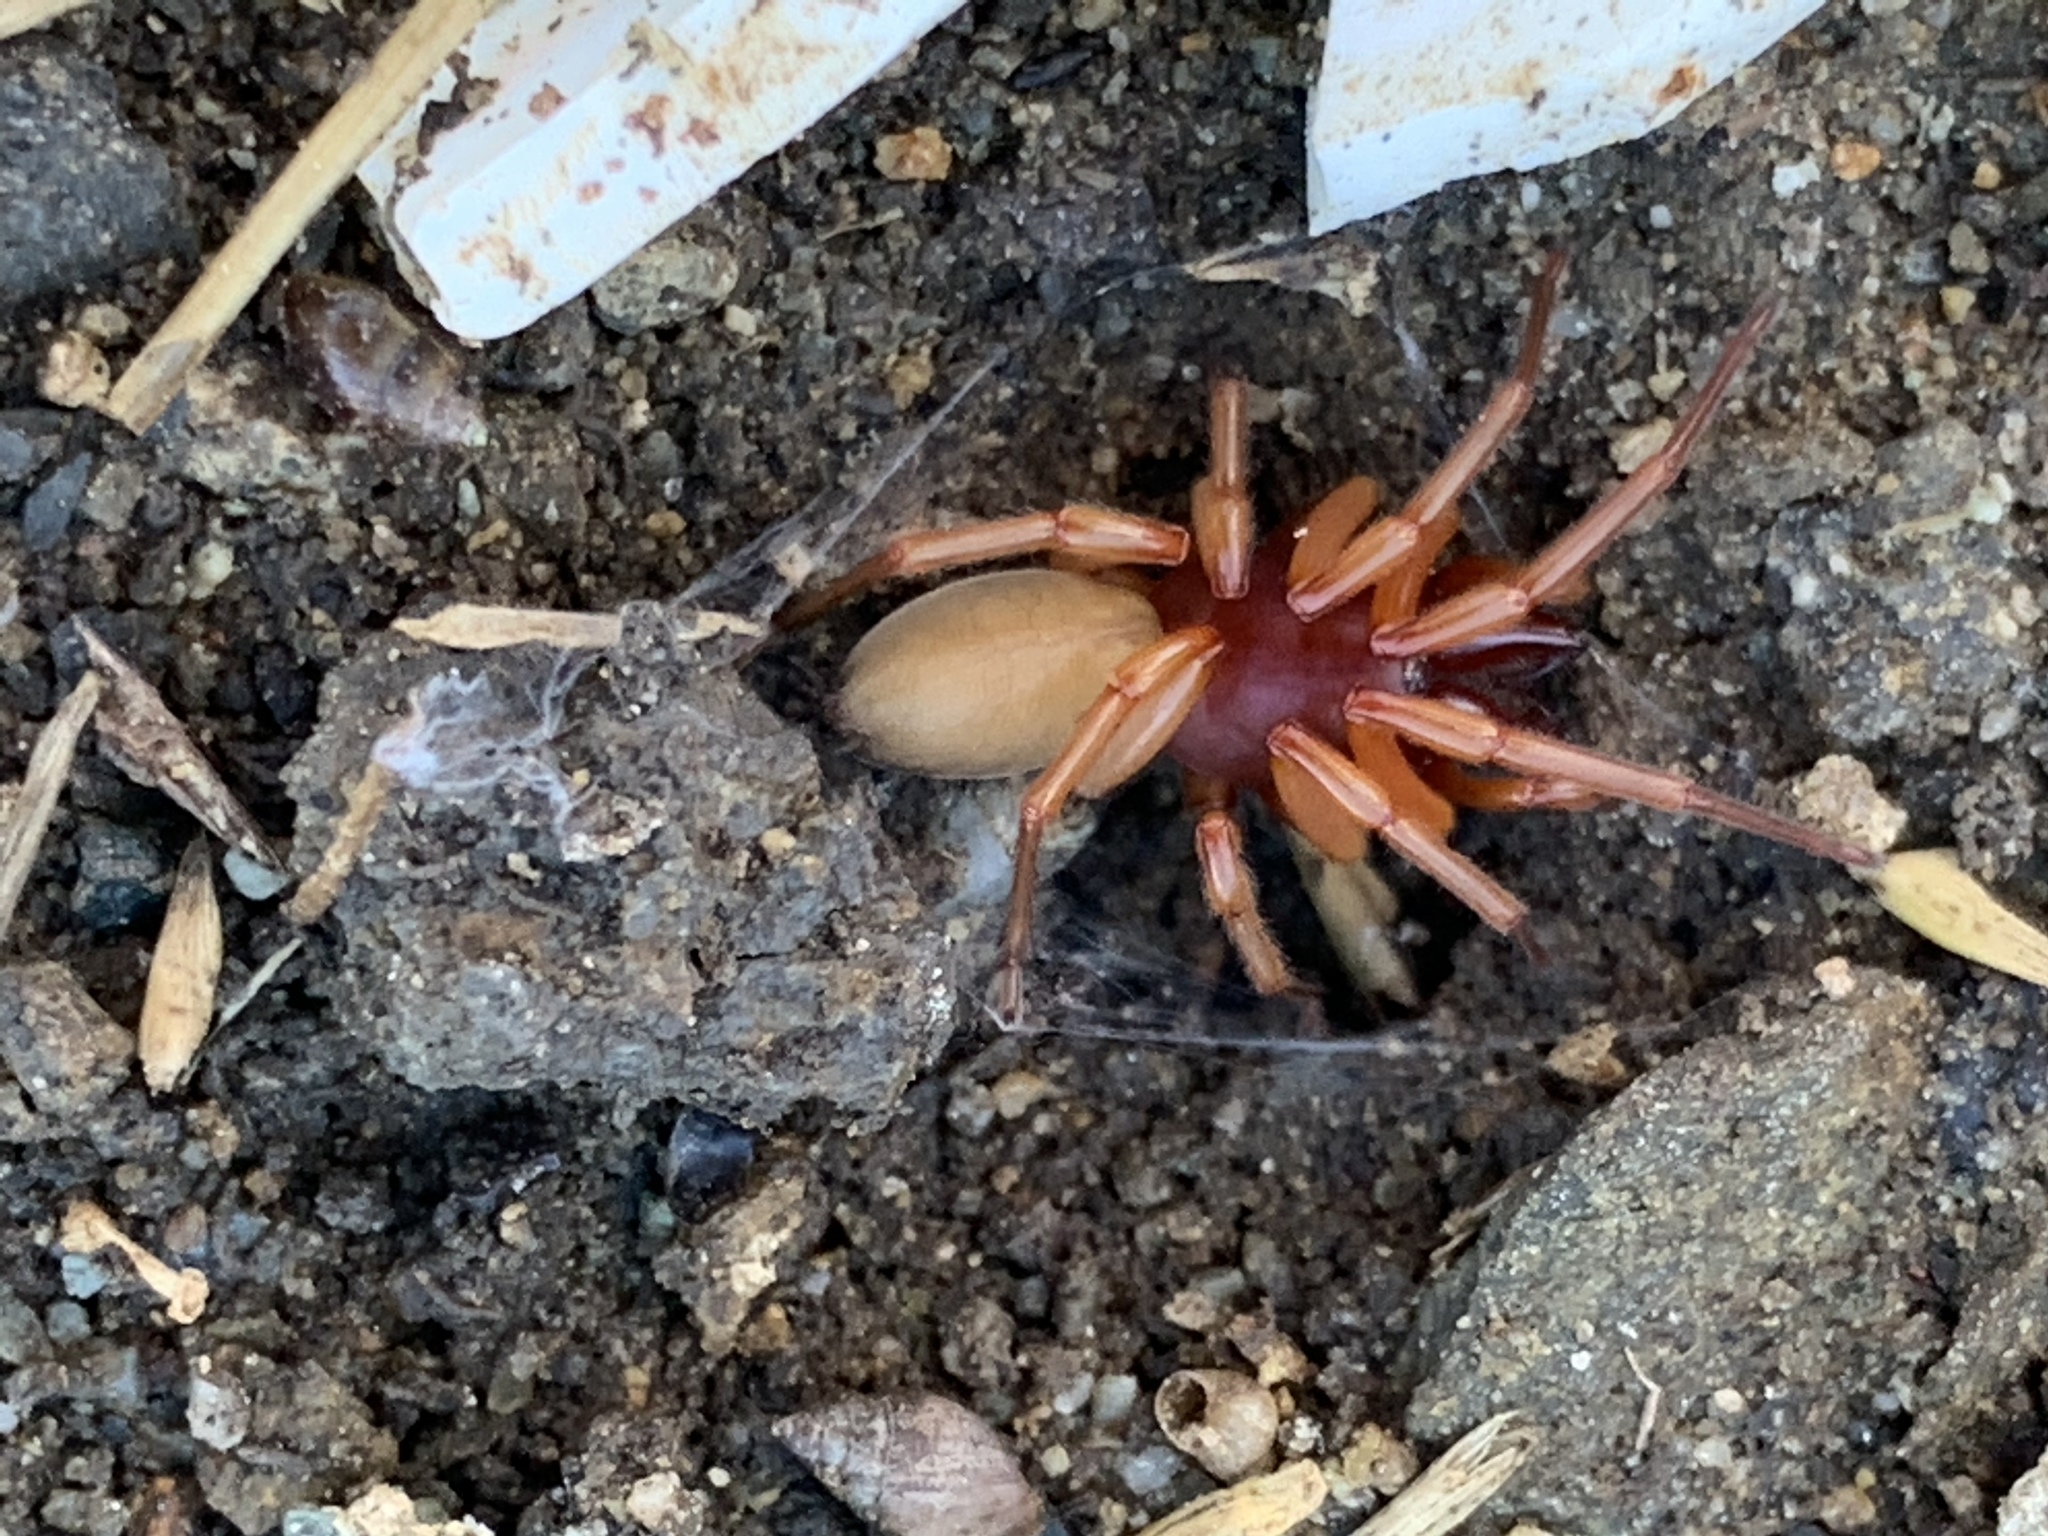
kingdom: Animalia
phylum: Arthropoda
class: Arachnida
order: Araneae
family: Dysderidae
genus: Dysdera
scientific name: Dysdera crocata
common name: Woodlouse spider
